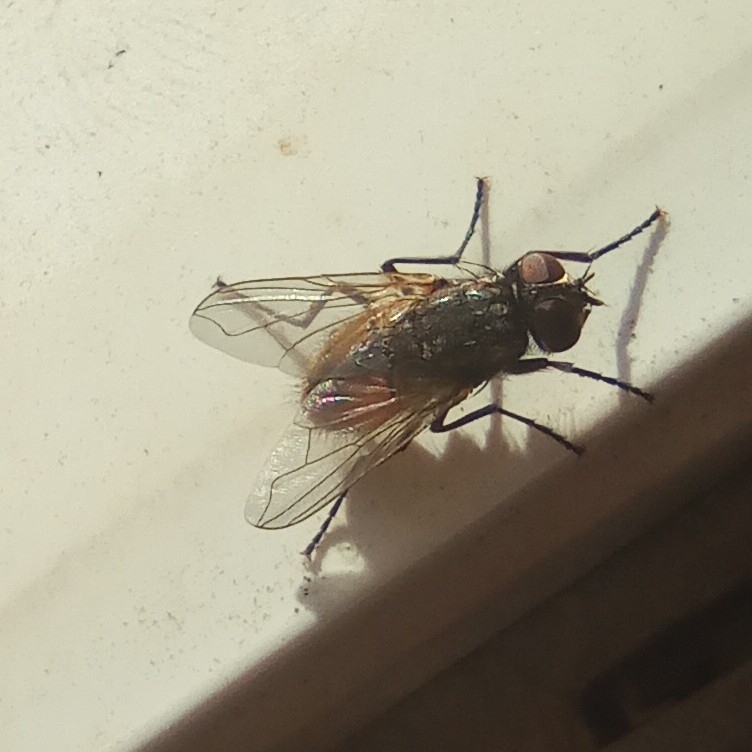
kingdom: Animalia
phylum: Arthropoda
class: Insecta
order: Diptera
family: Muscidae
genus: Musca
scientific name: Musca domestica
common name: House fly
